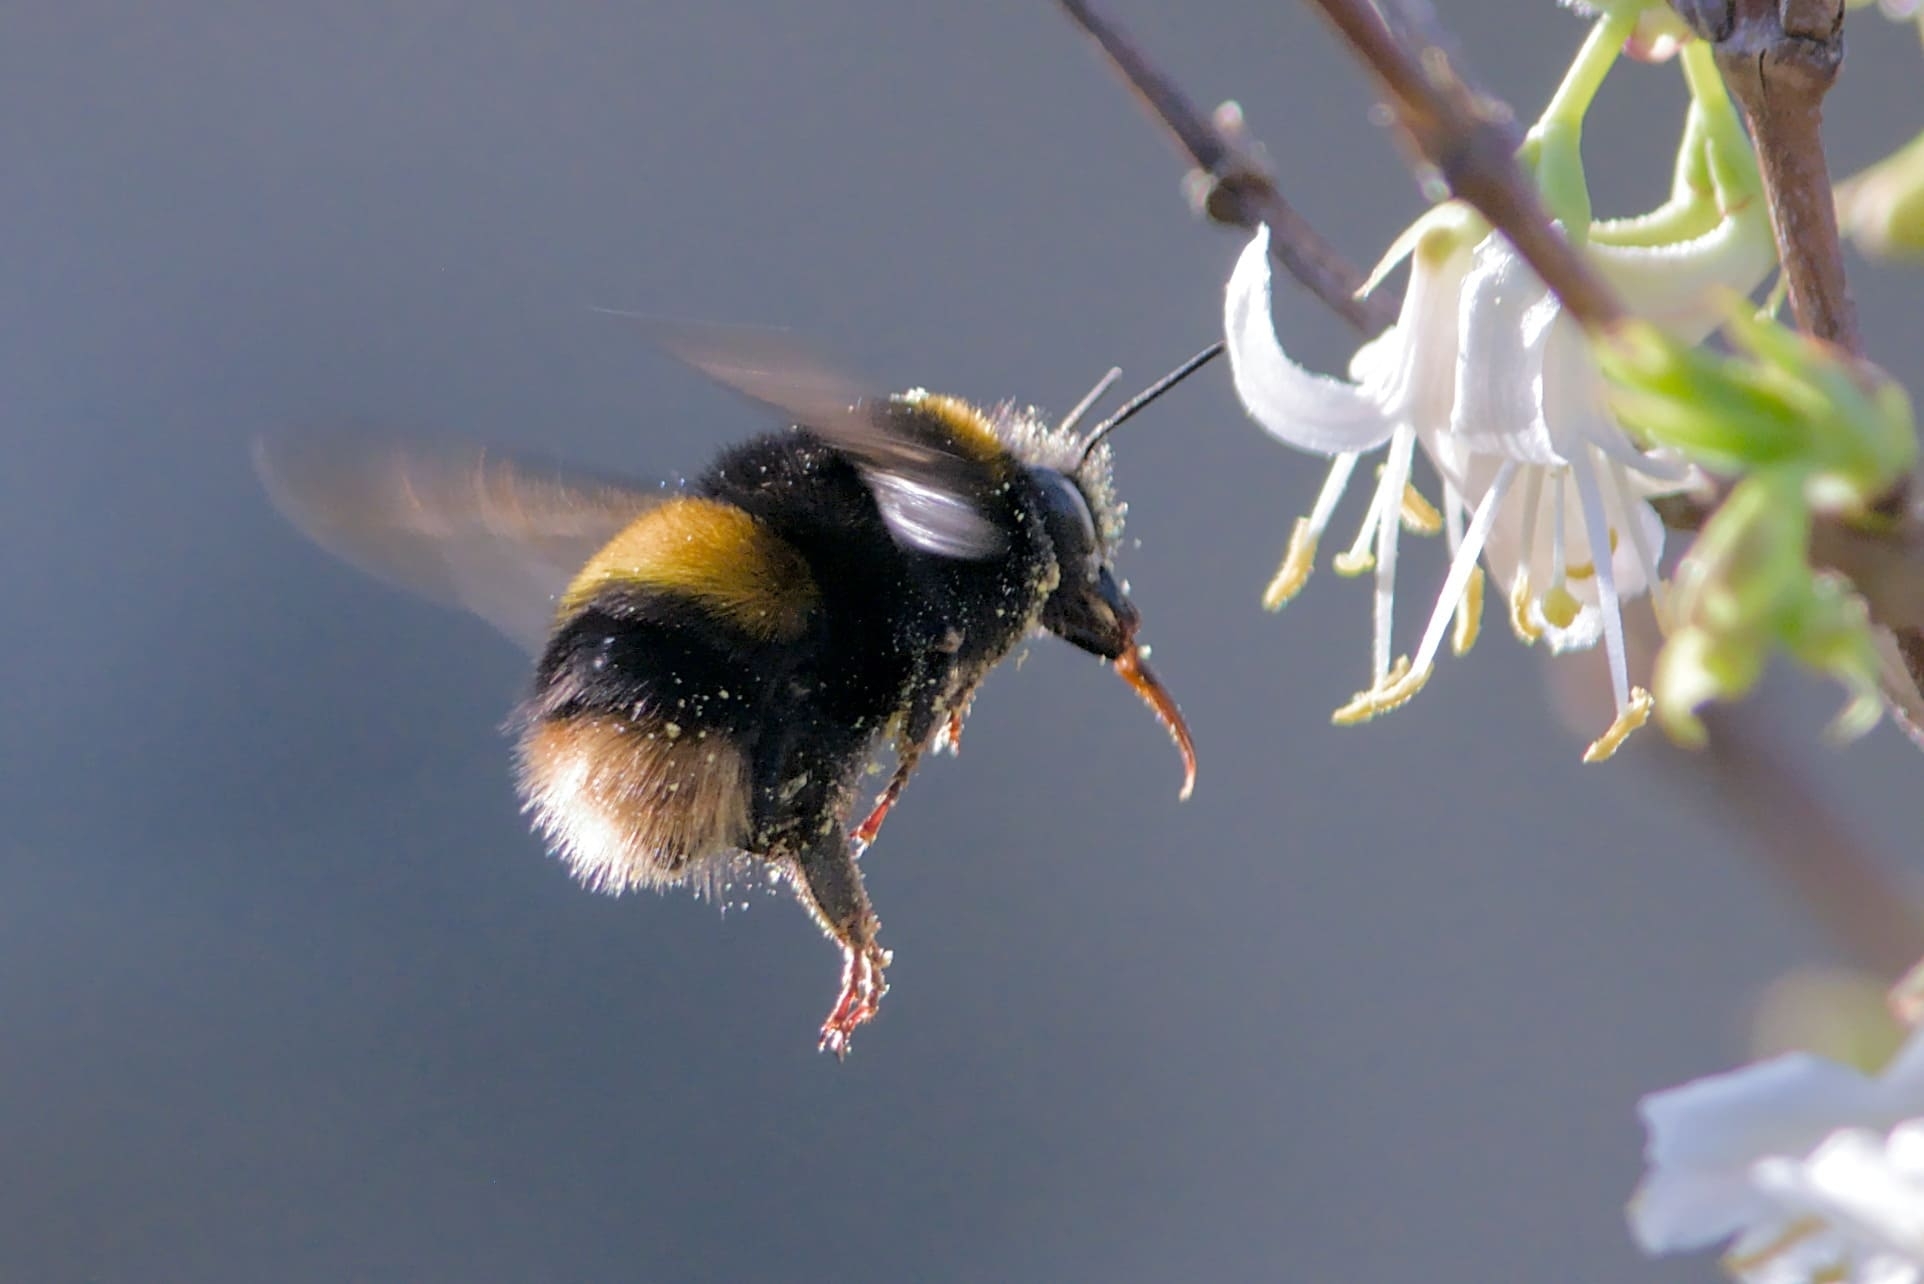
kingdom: Animalia
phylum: Arthropoda
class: Insecta
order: Hymenoptera
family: Apidae
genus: Bombus
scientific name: Bombus terrestris
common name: Buff-tailed bumblebee
